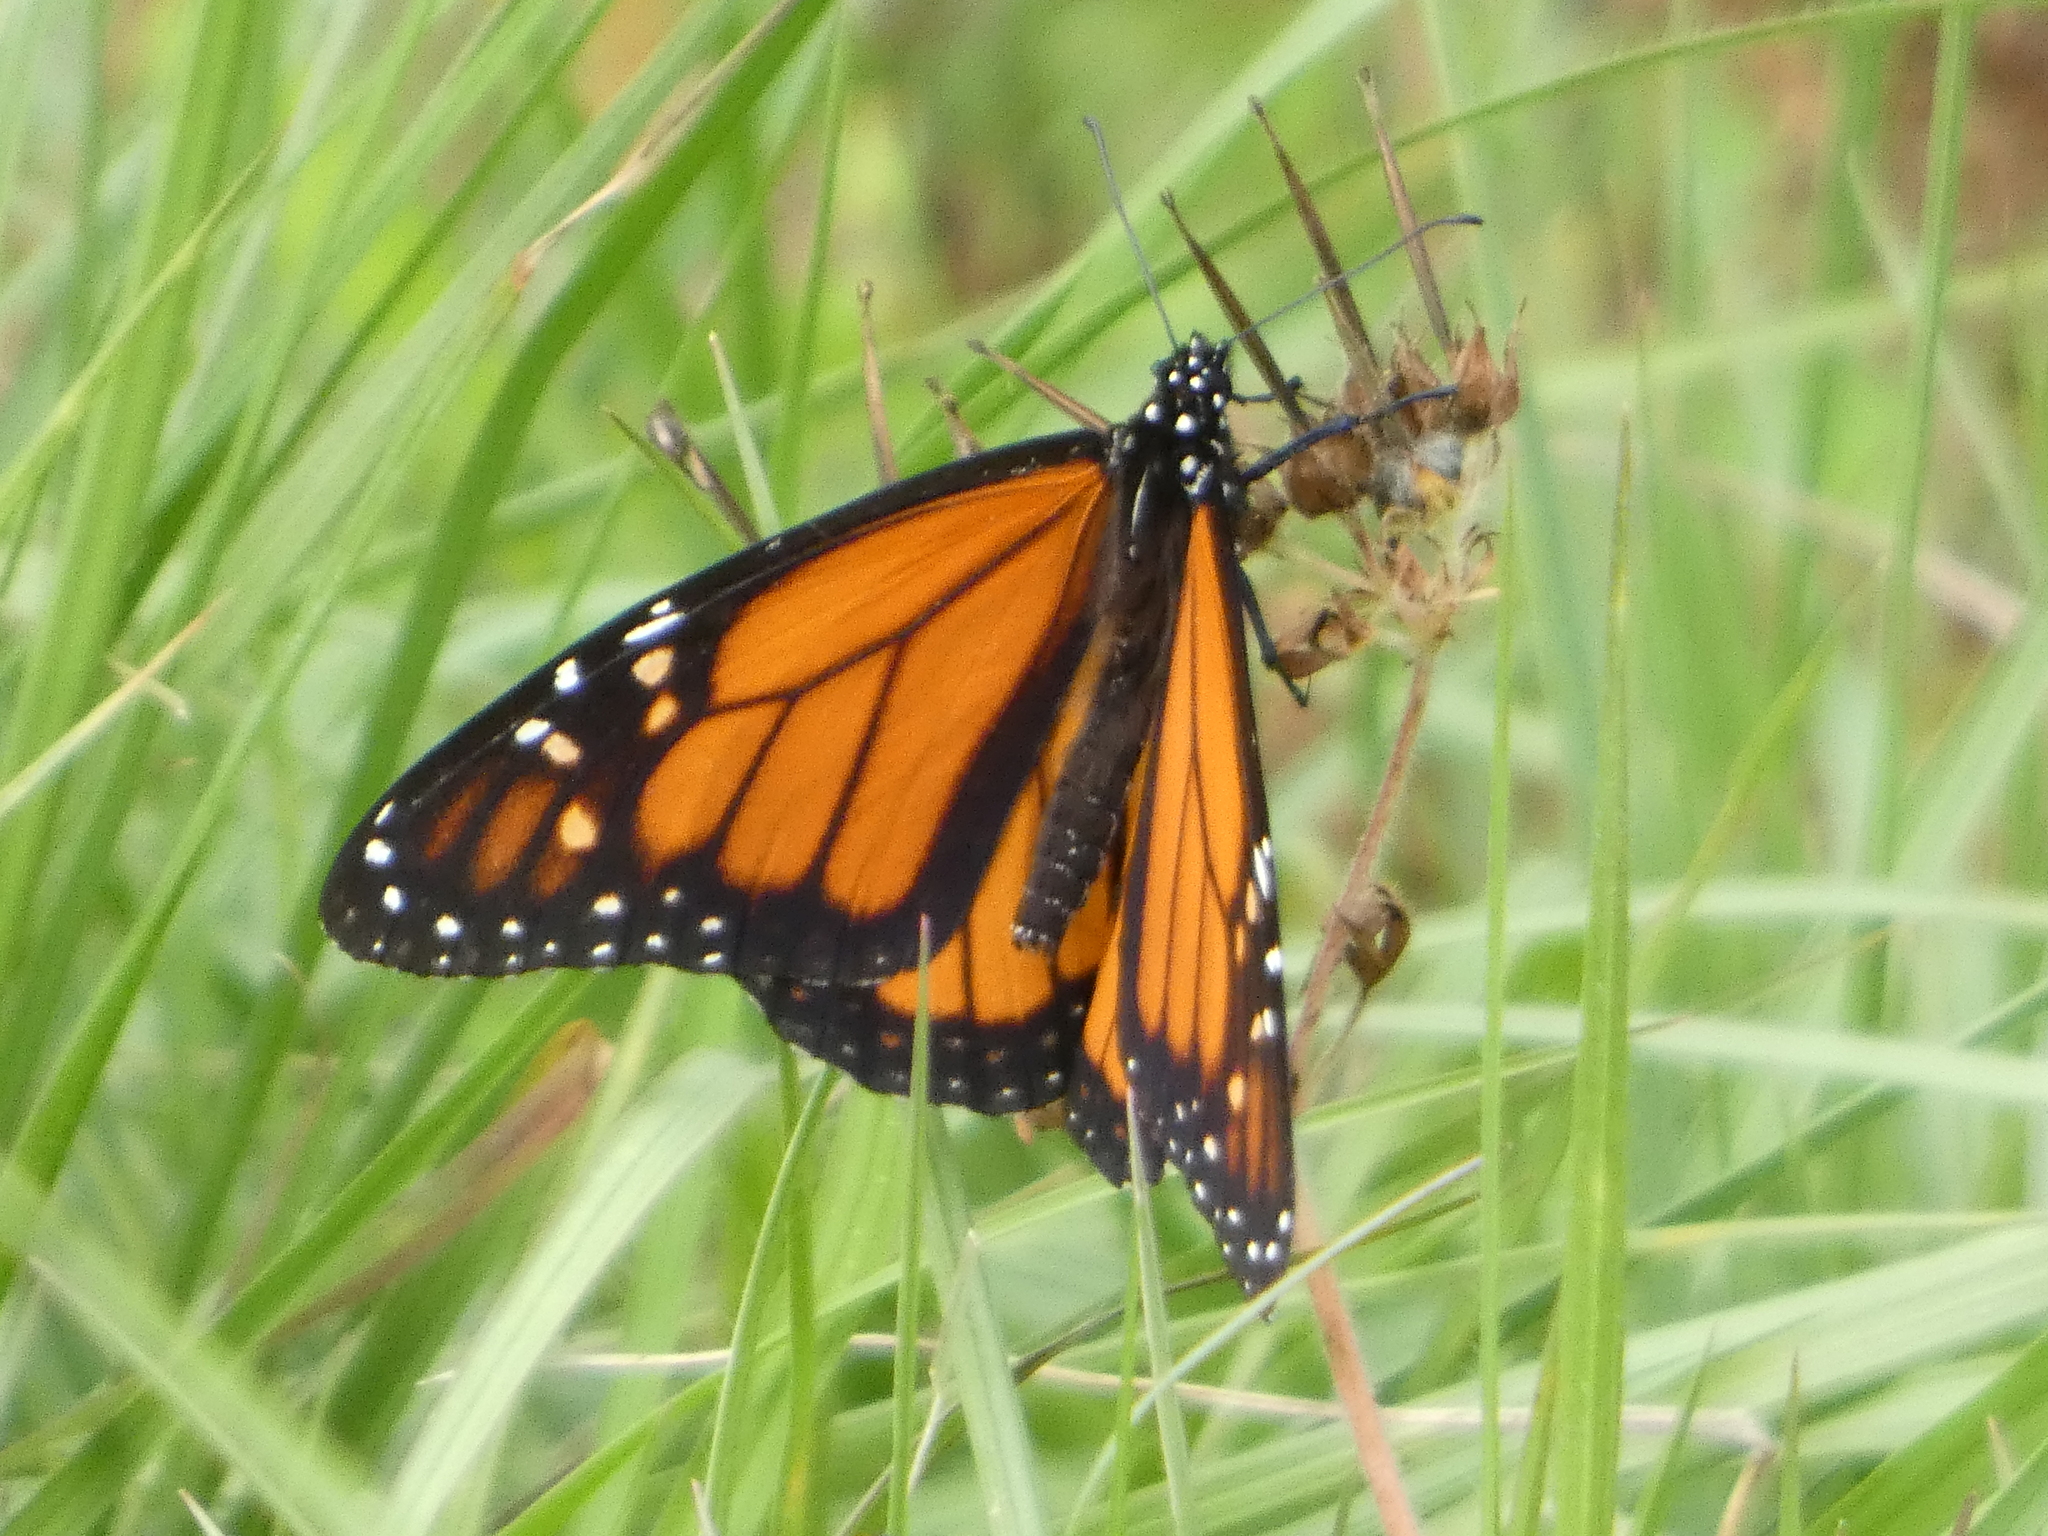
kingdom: Animalia
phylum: Arthropoda
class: Insecta
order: Lepidoptera
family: Nymphalidae
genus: Danaus
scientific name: Danaus plexippus
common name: Monarch
